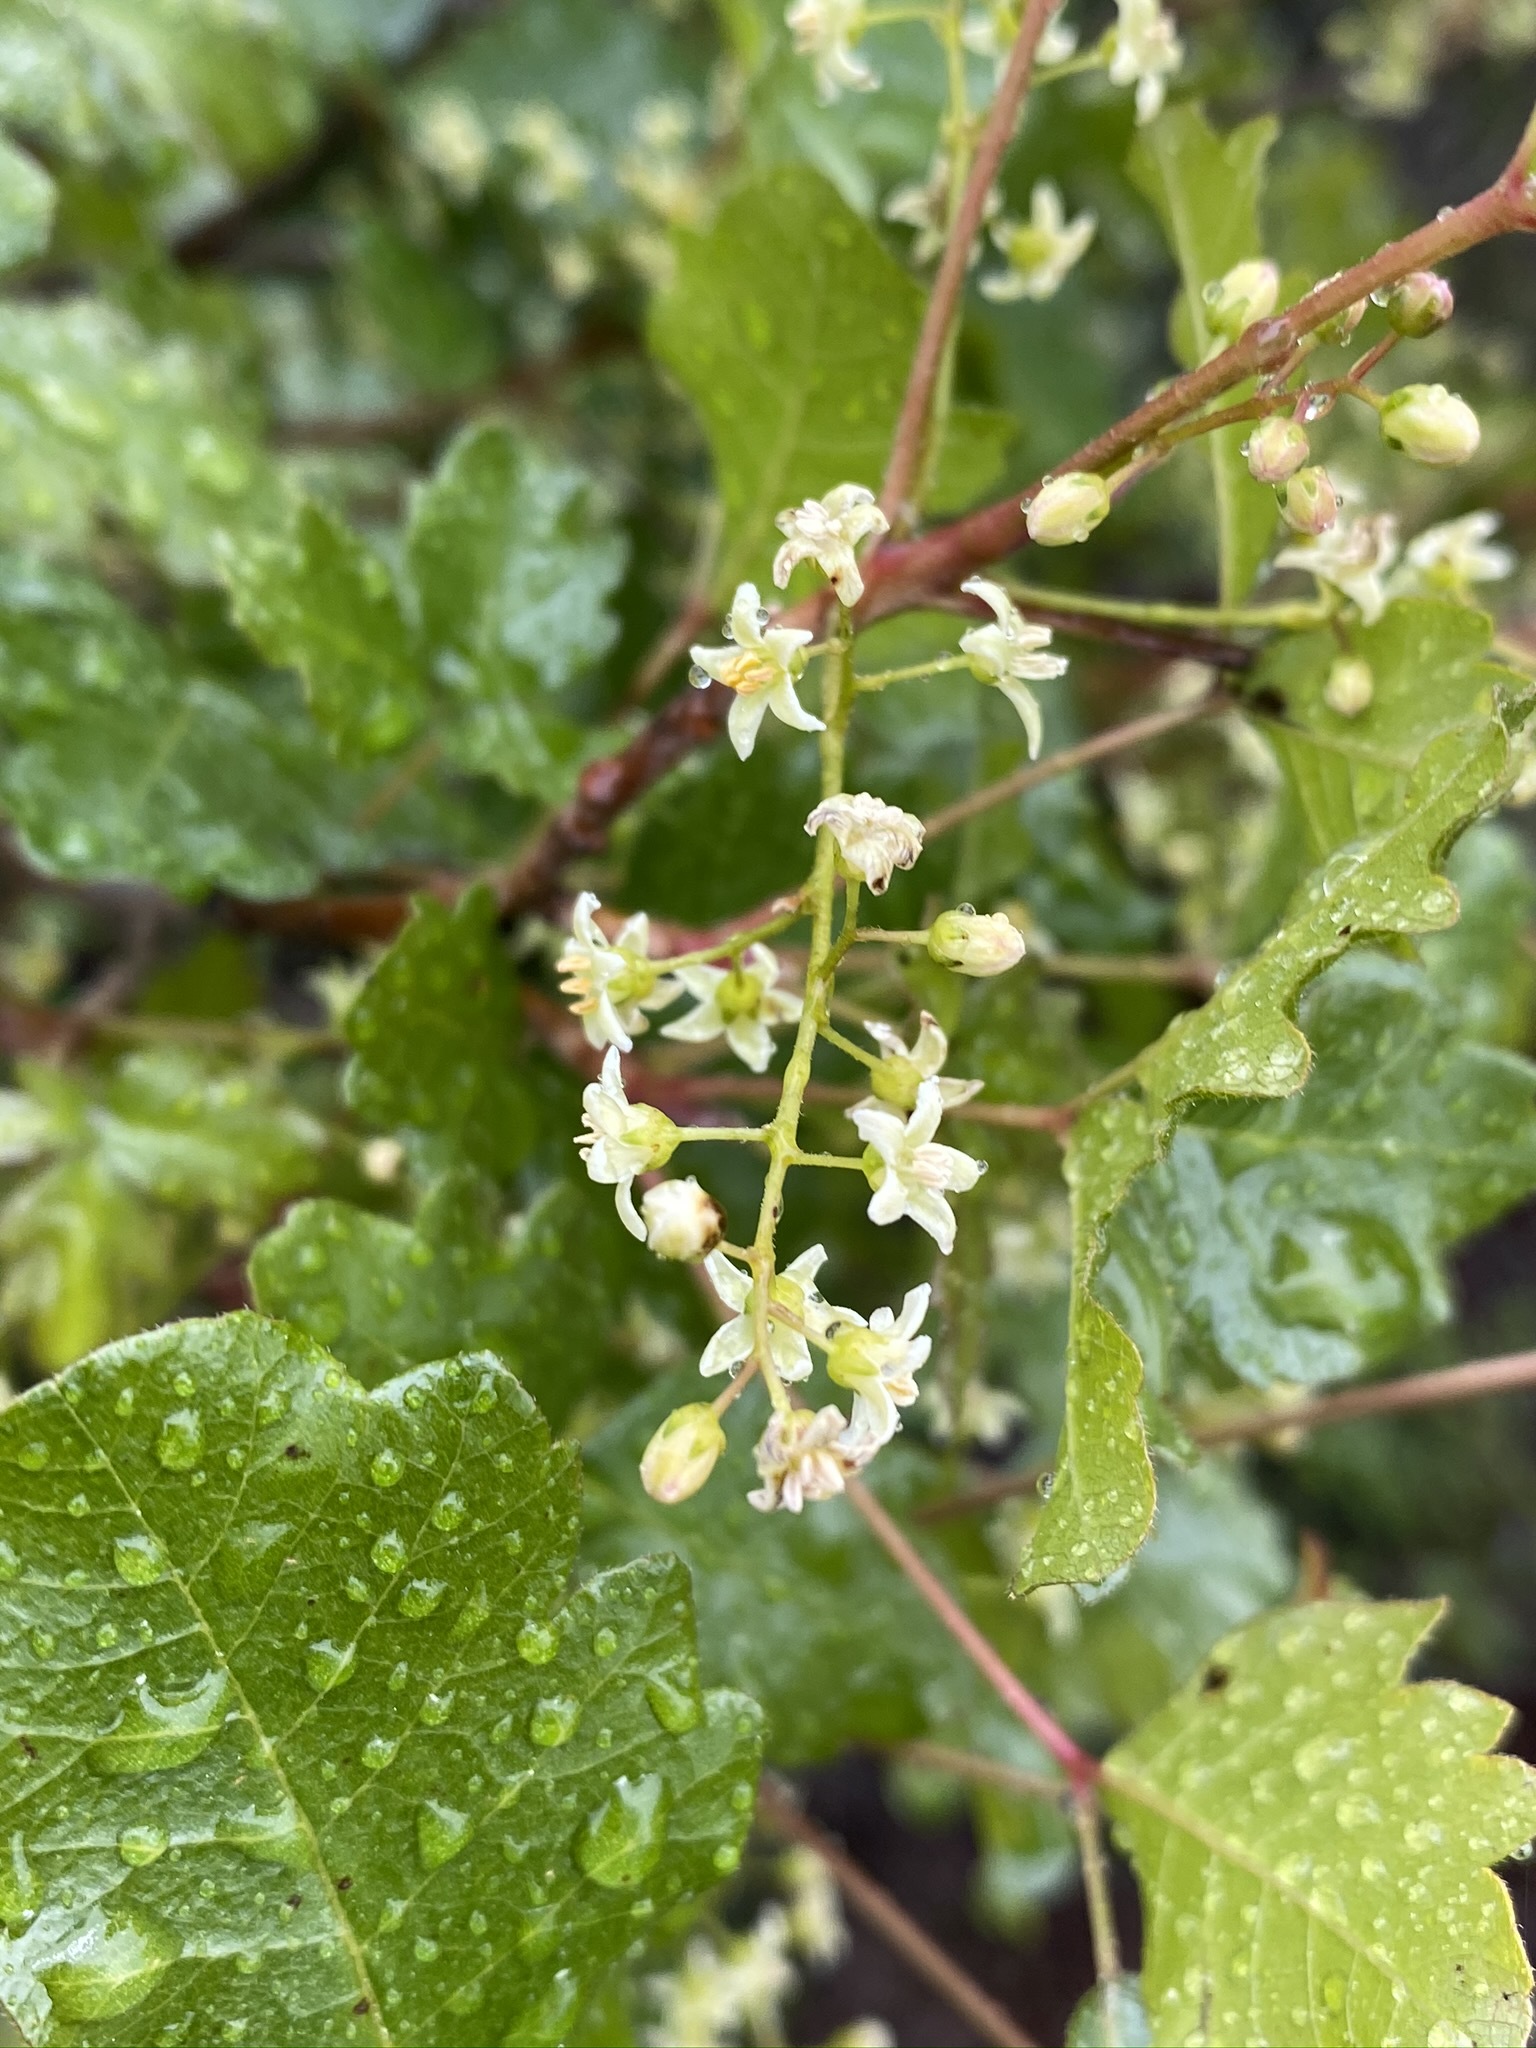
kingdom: Plantae
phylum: Tracheophyta
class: Magnoliopsida
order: Sapindales
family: Anacardiaceae
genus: Toxicodendron
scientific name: Toxicodendron diversilobum
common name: Pacific poison-oak
